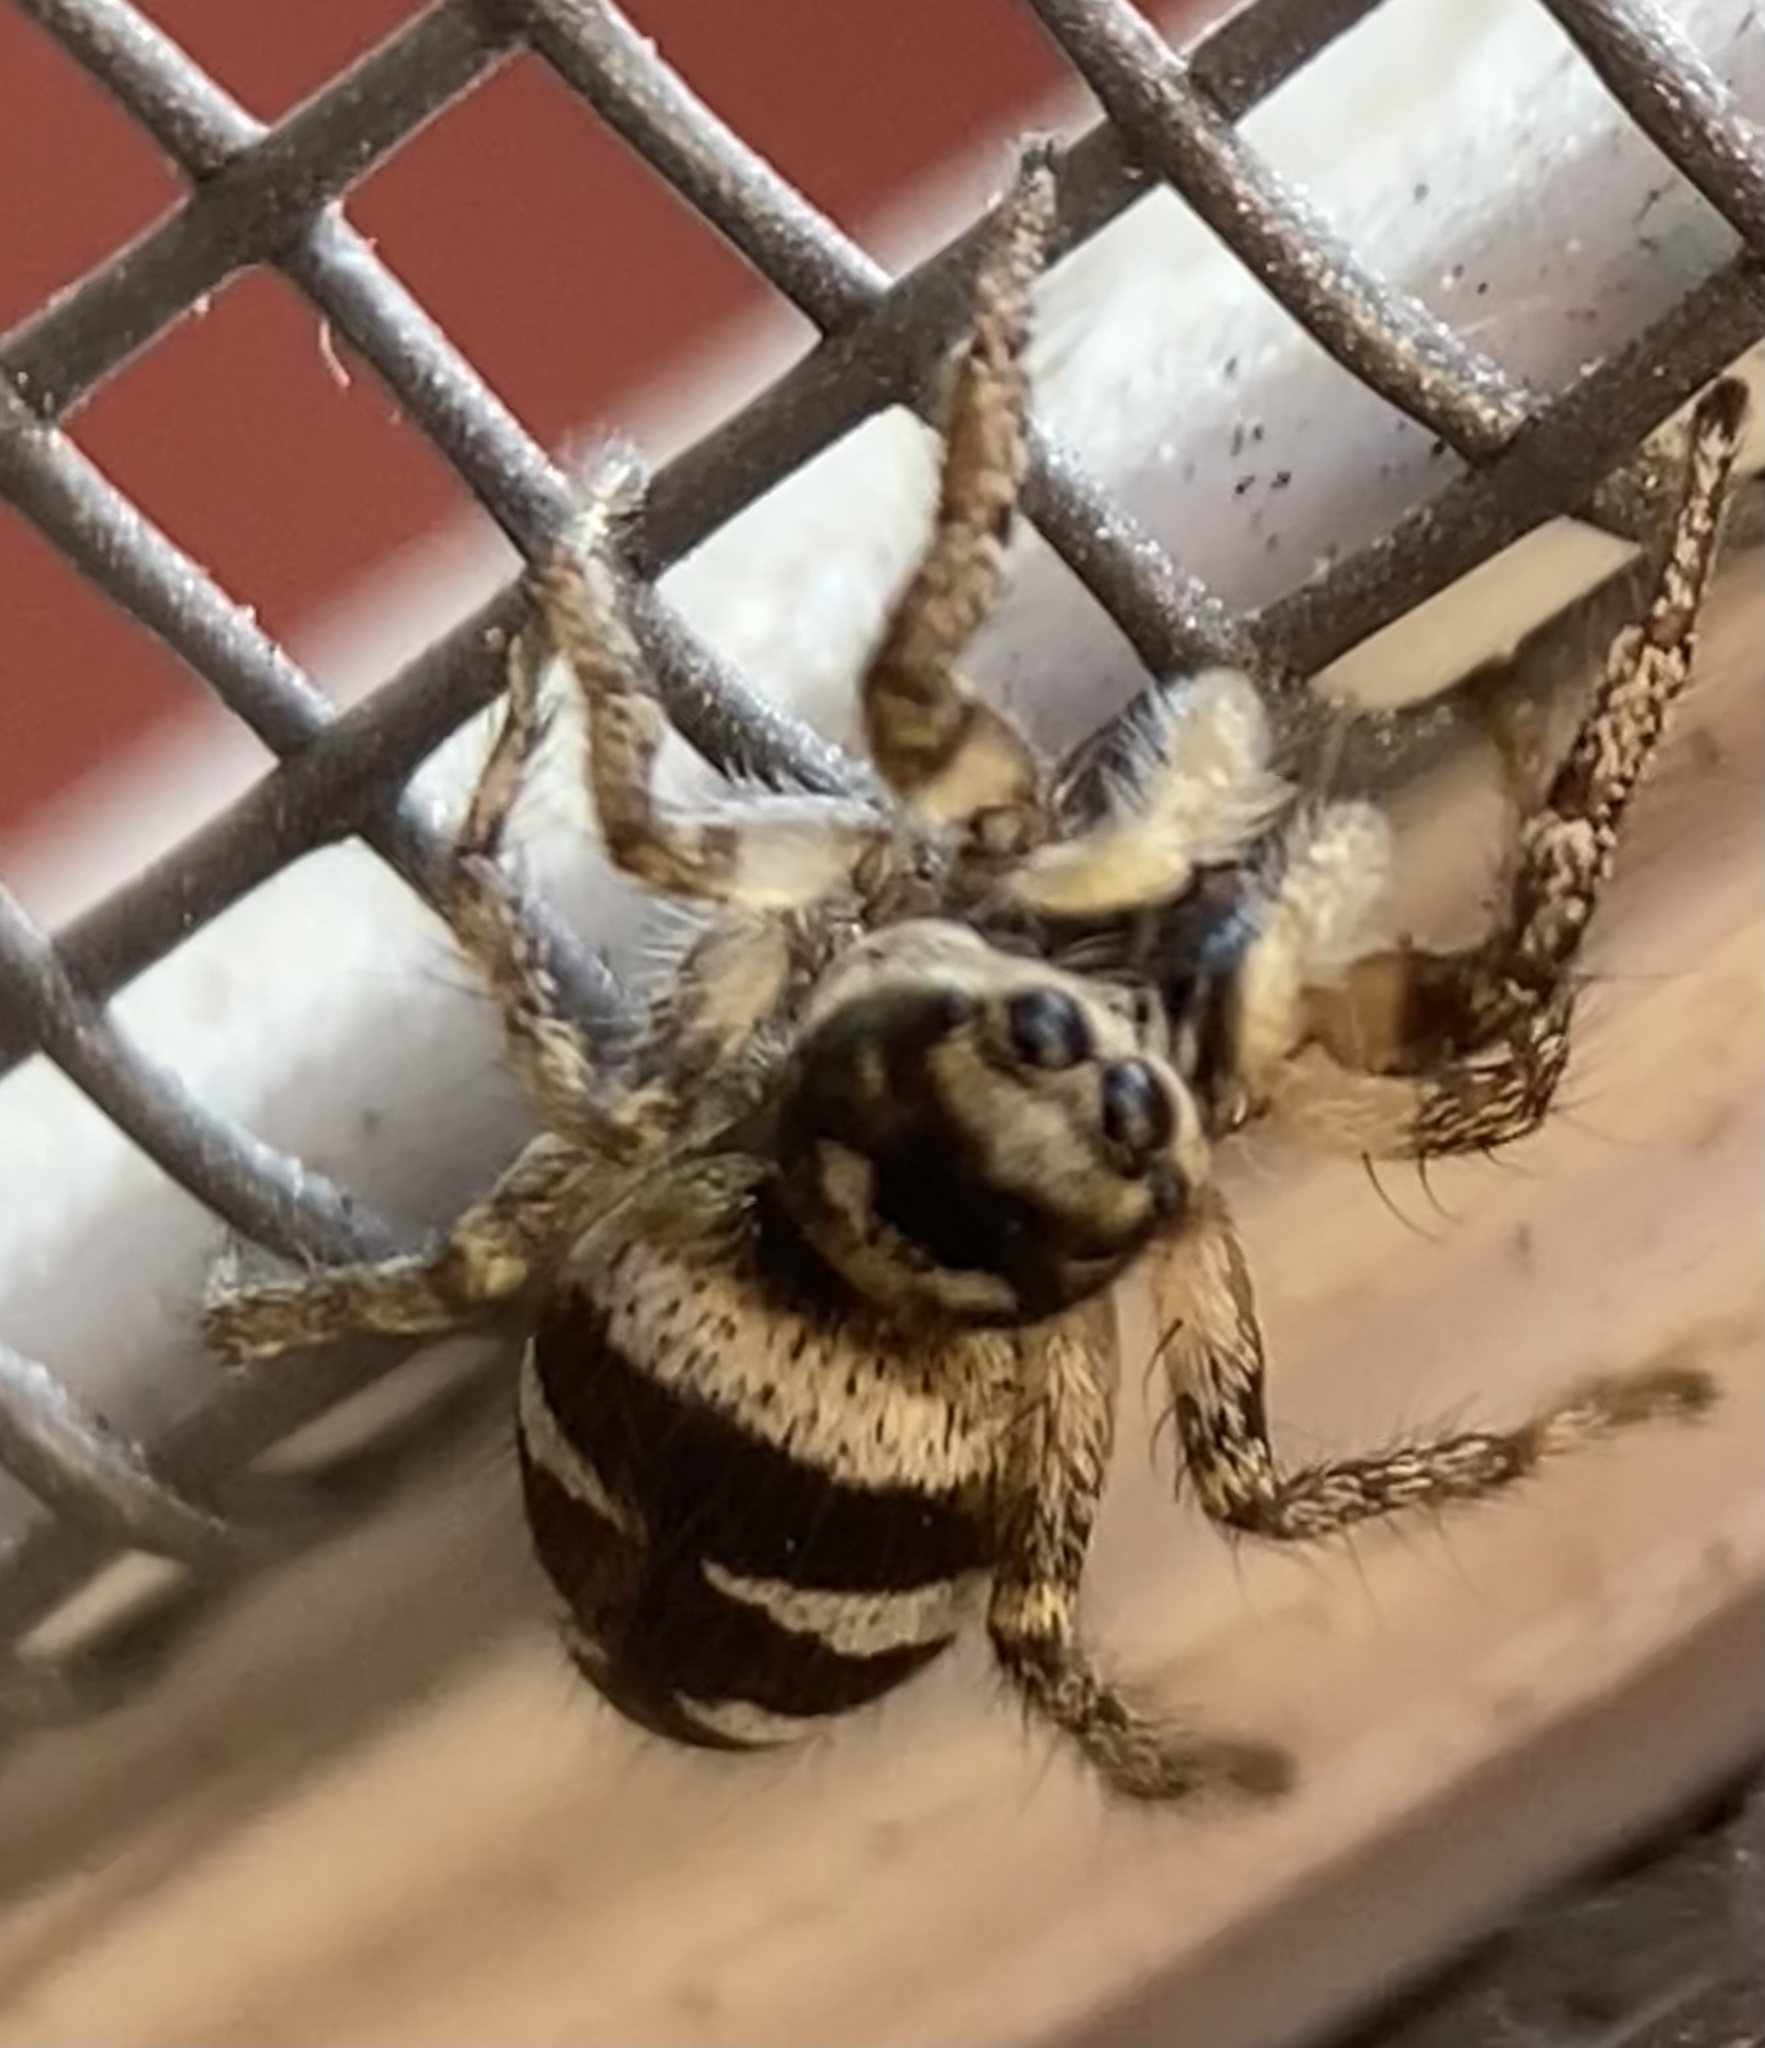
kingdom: Animalia
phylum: Arthropoda
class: Arachnida
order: Araneae
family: Salticidae
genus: Salticus
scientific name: Salticus scenicus
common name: Zebra jumper
